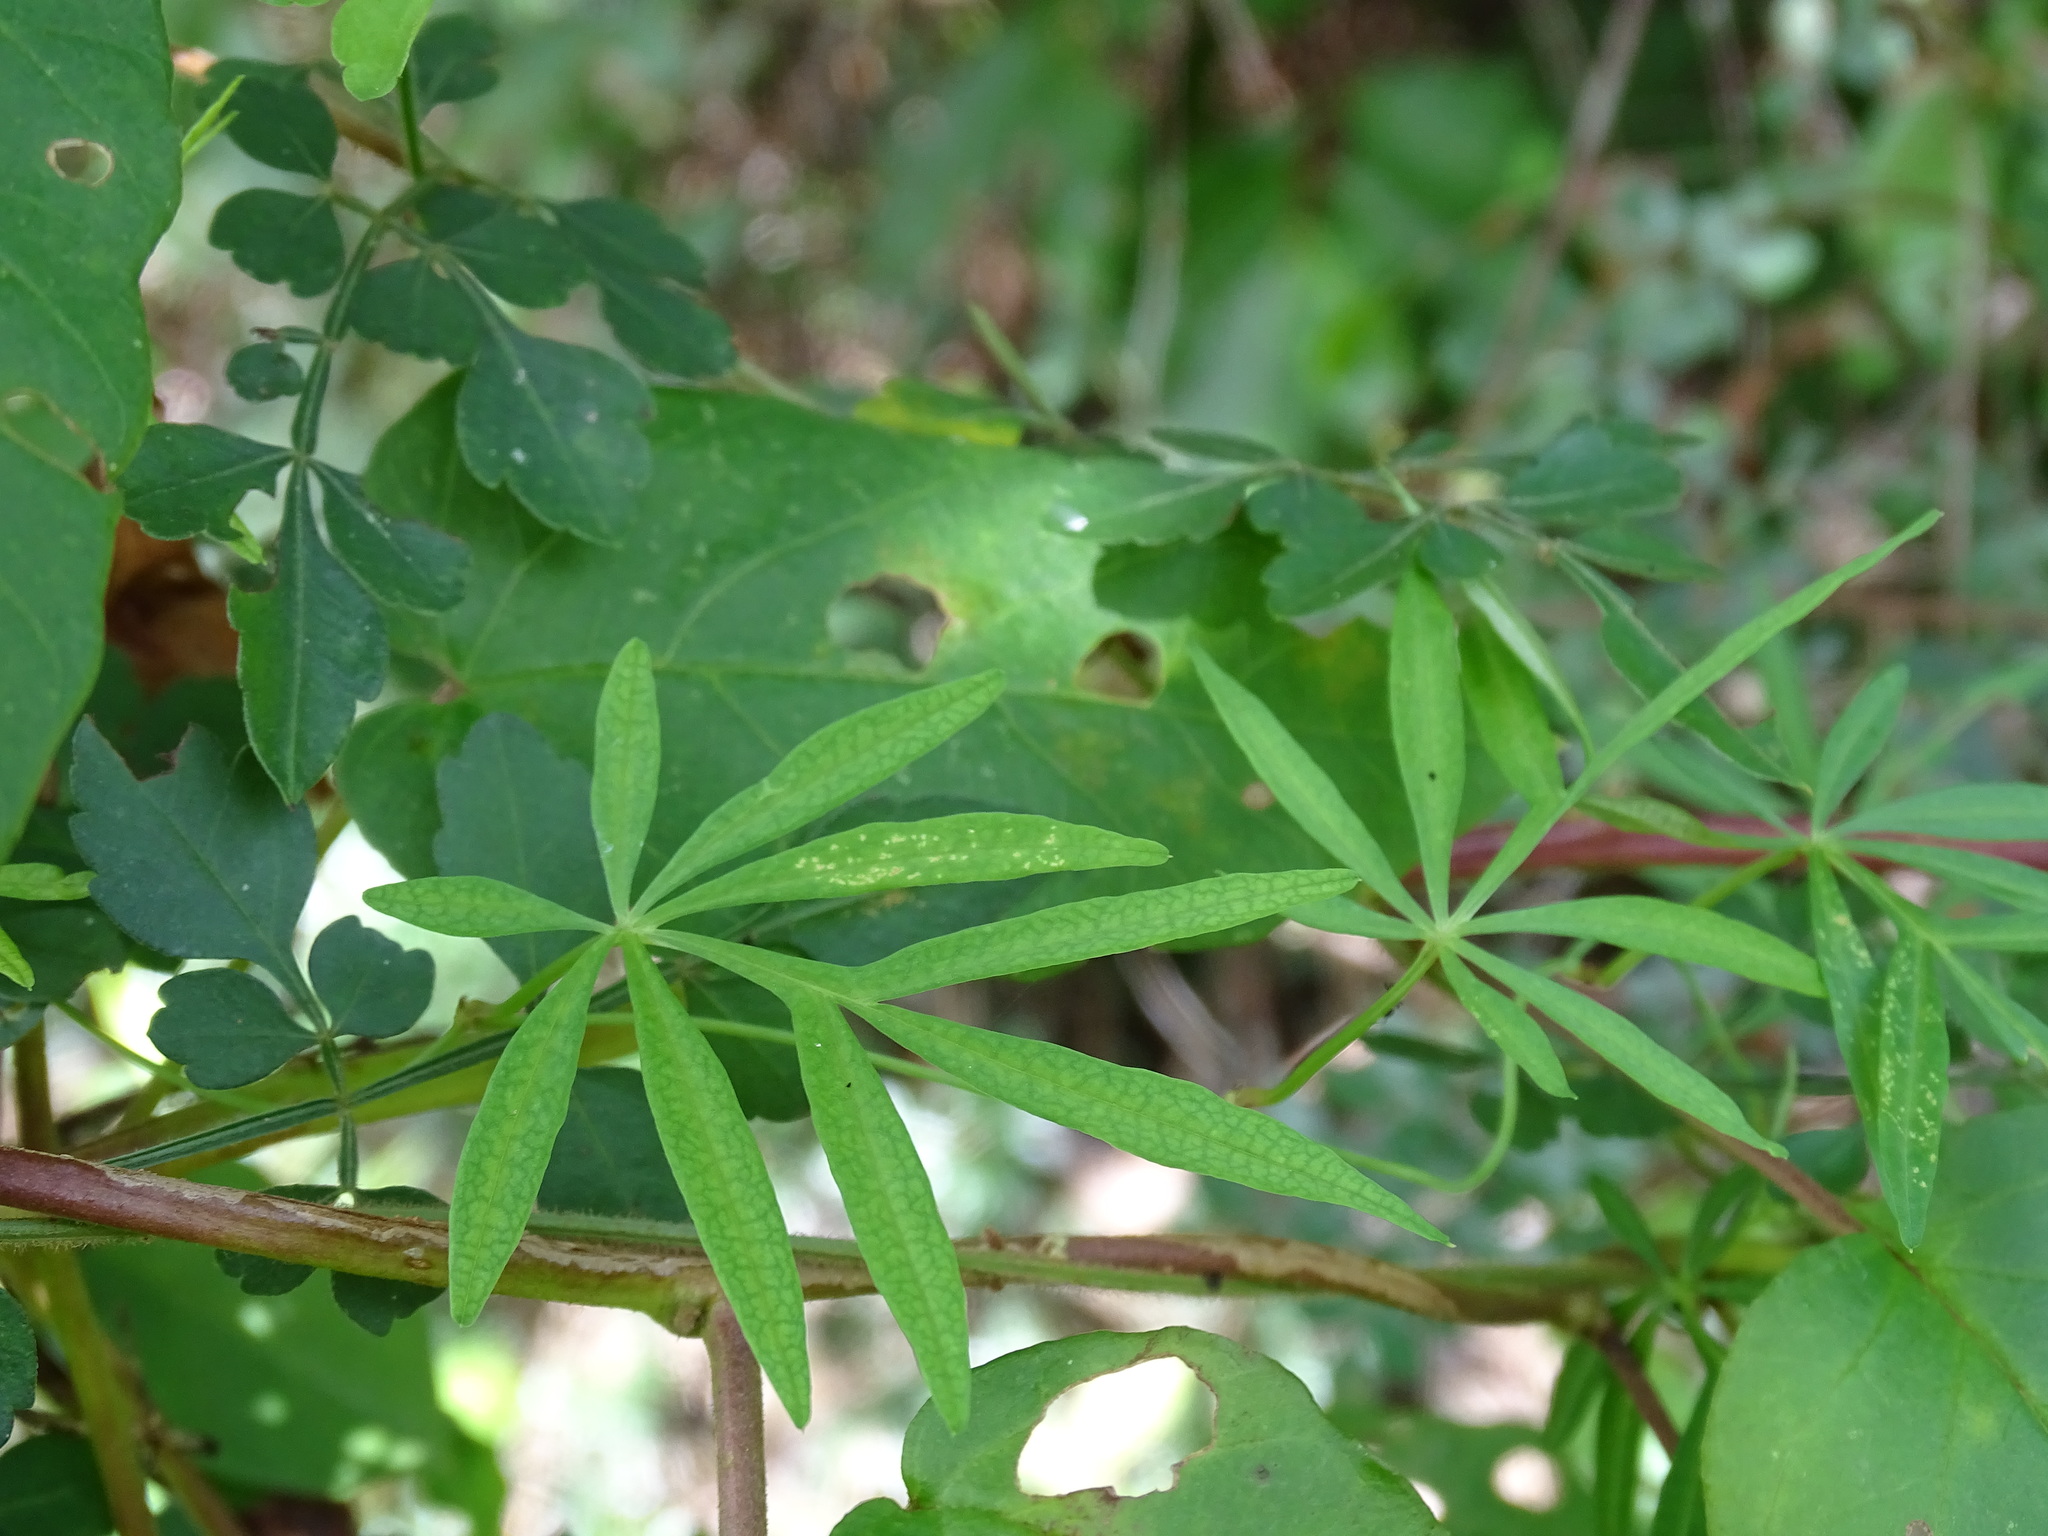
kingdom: Plantae
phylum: Tracheophyta
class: Magnoliopsida
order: Solanales
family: Convolvulaceae
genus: Ipomoea
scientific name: Ipomoea heterodoxa
